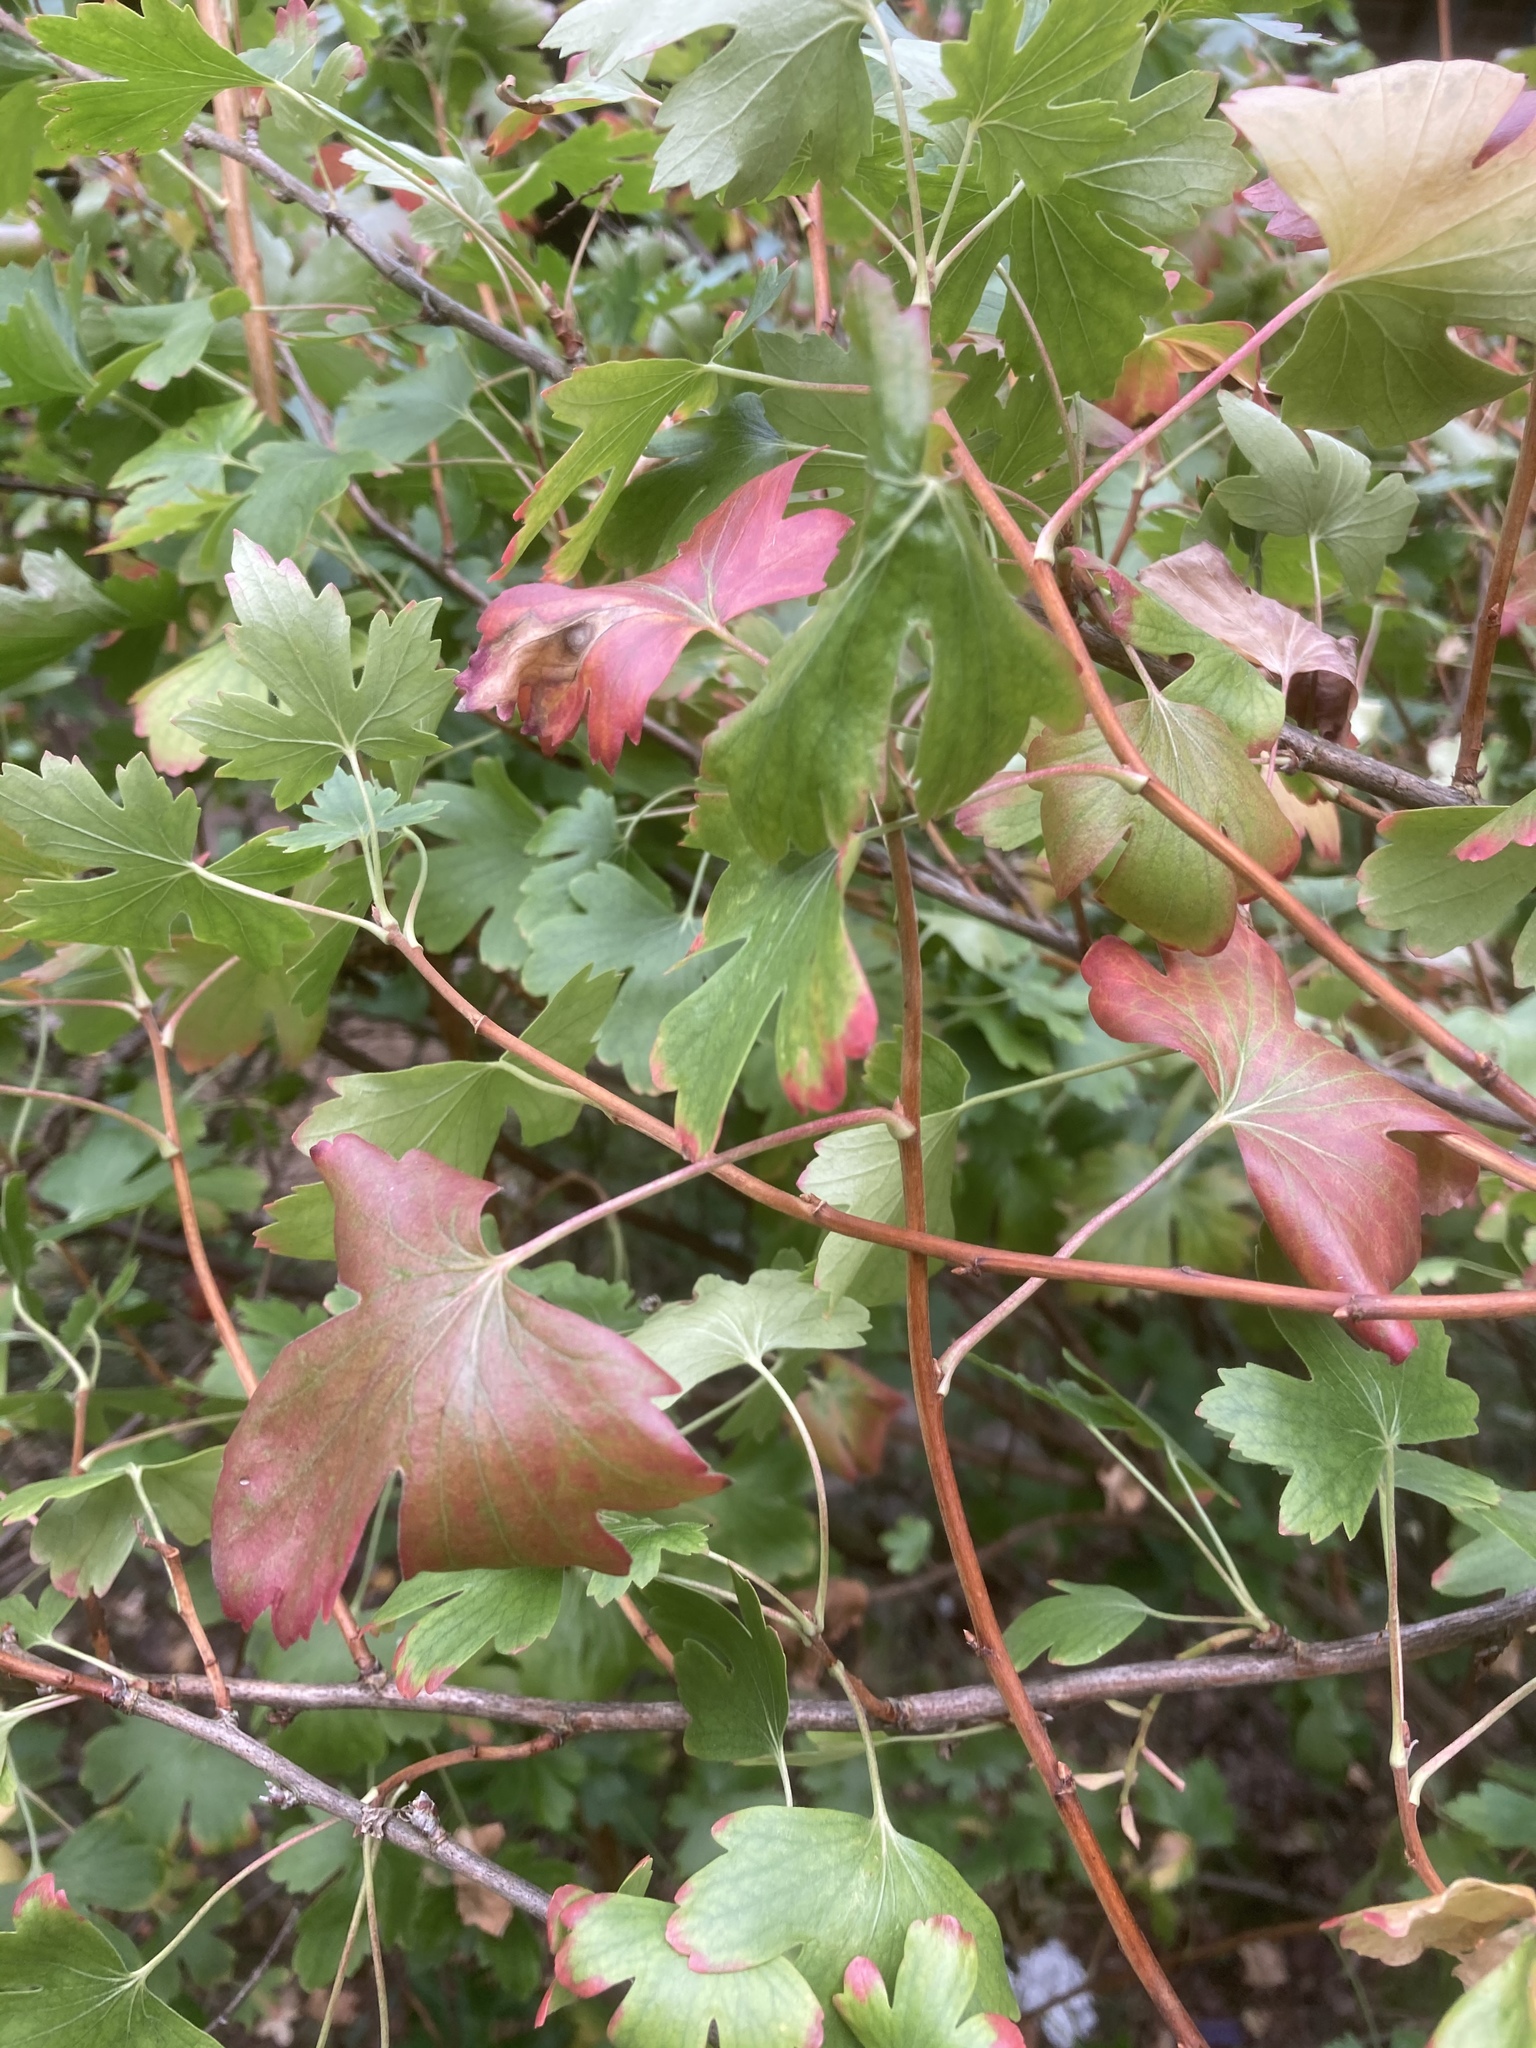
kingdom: Plantae
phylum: Tracheophyta
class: Magnoliopsida
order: Saxifragales
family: Grossulariaceae
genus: Ribes
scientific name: Ribes alpinum
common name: Alpine currant
